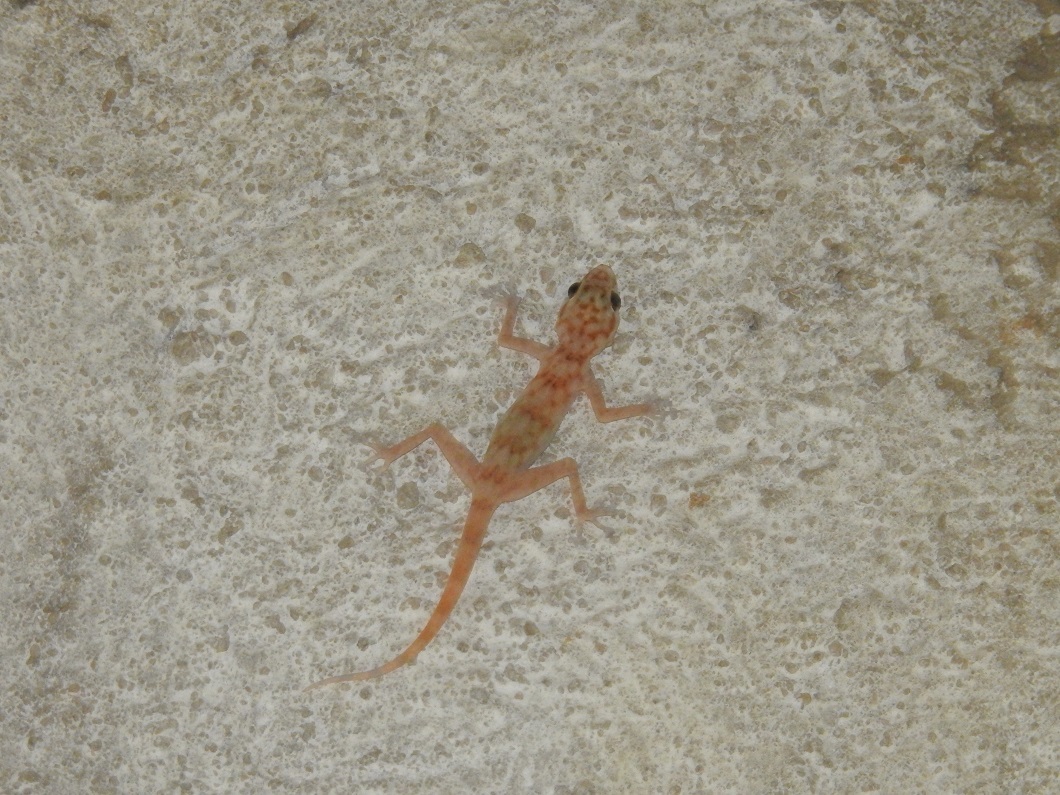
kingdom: Animalia
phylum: Chordata
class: Squamata
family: Phyllodactylidae
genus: Ptyodactylus
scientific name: Ptyodactylus togoensis
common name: Togo fan-footed gecko
